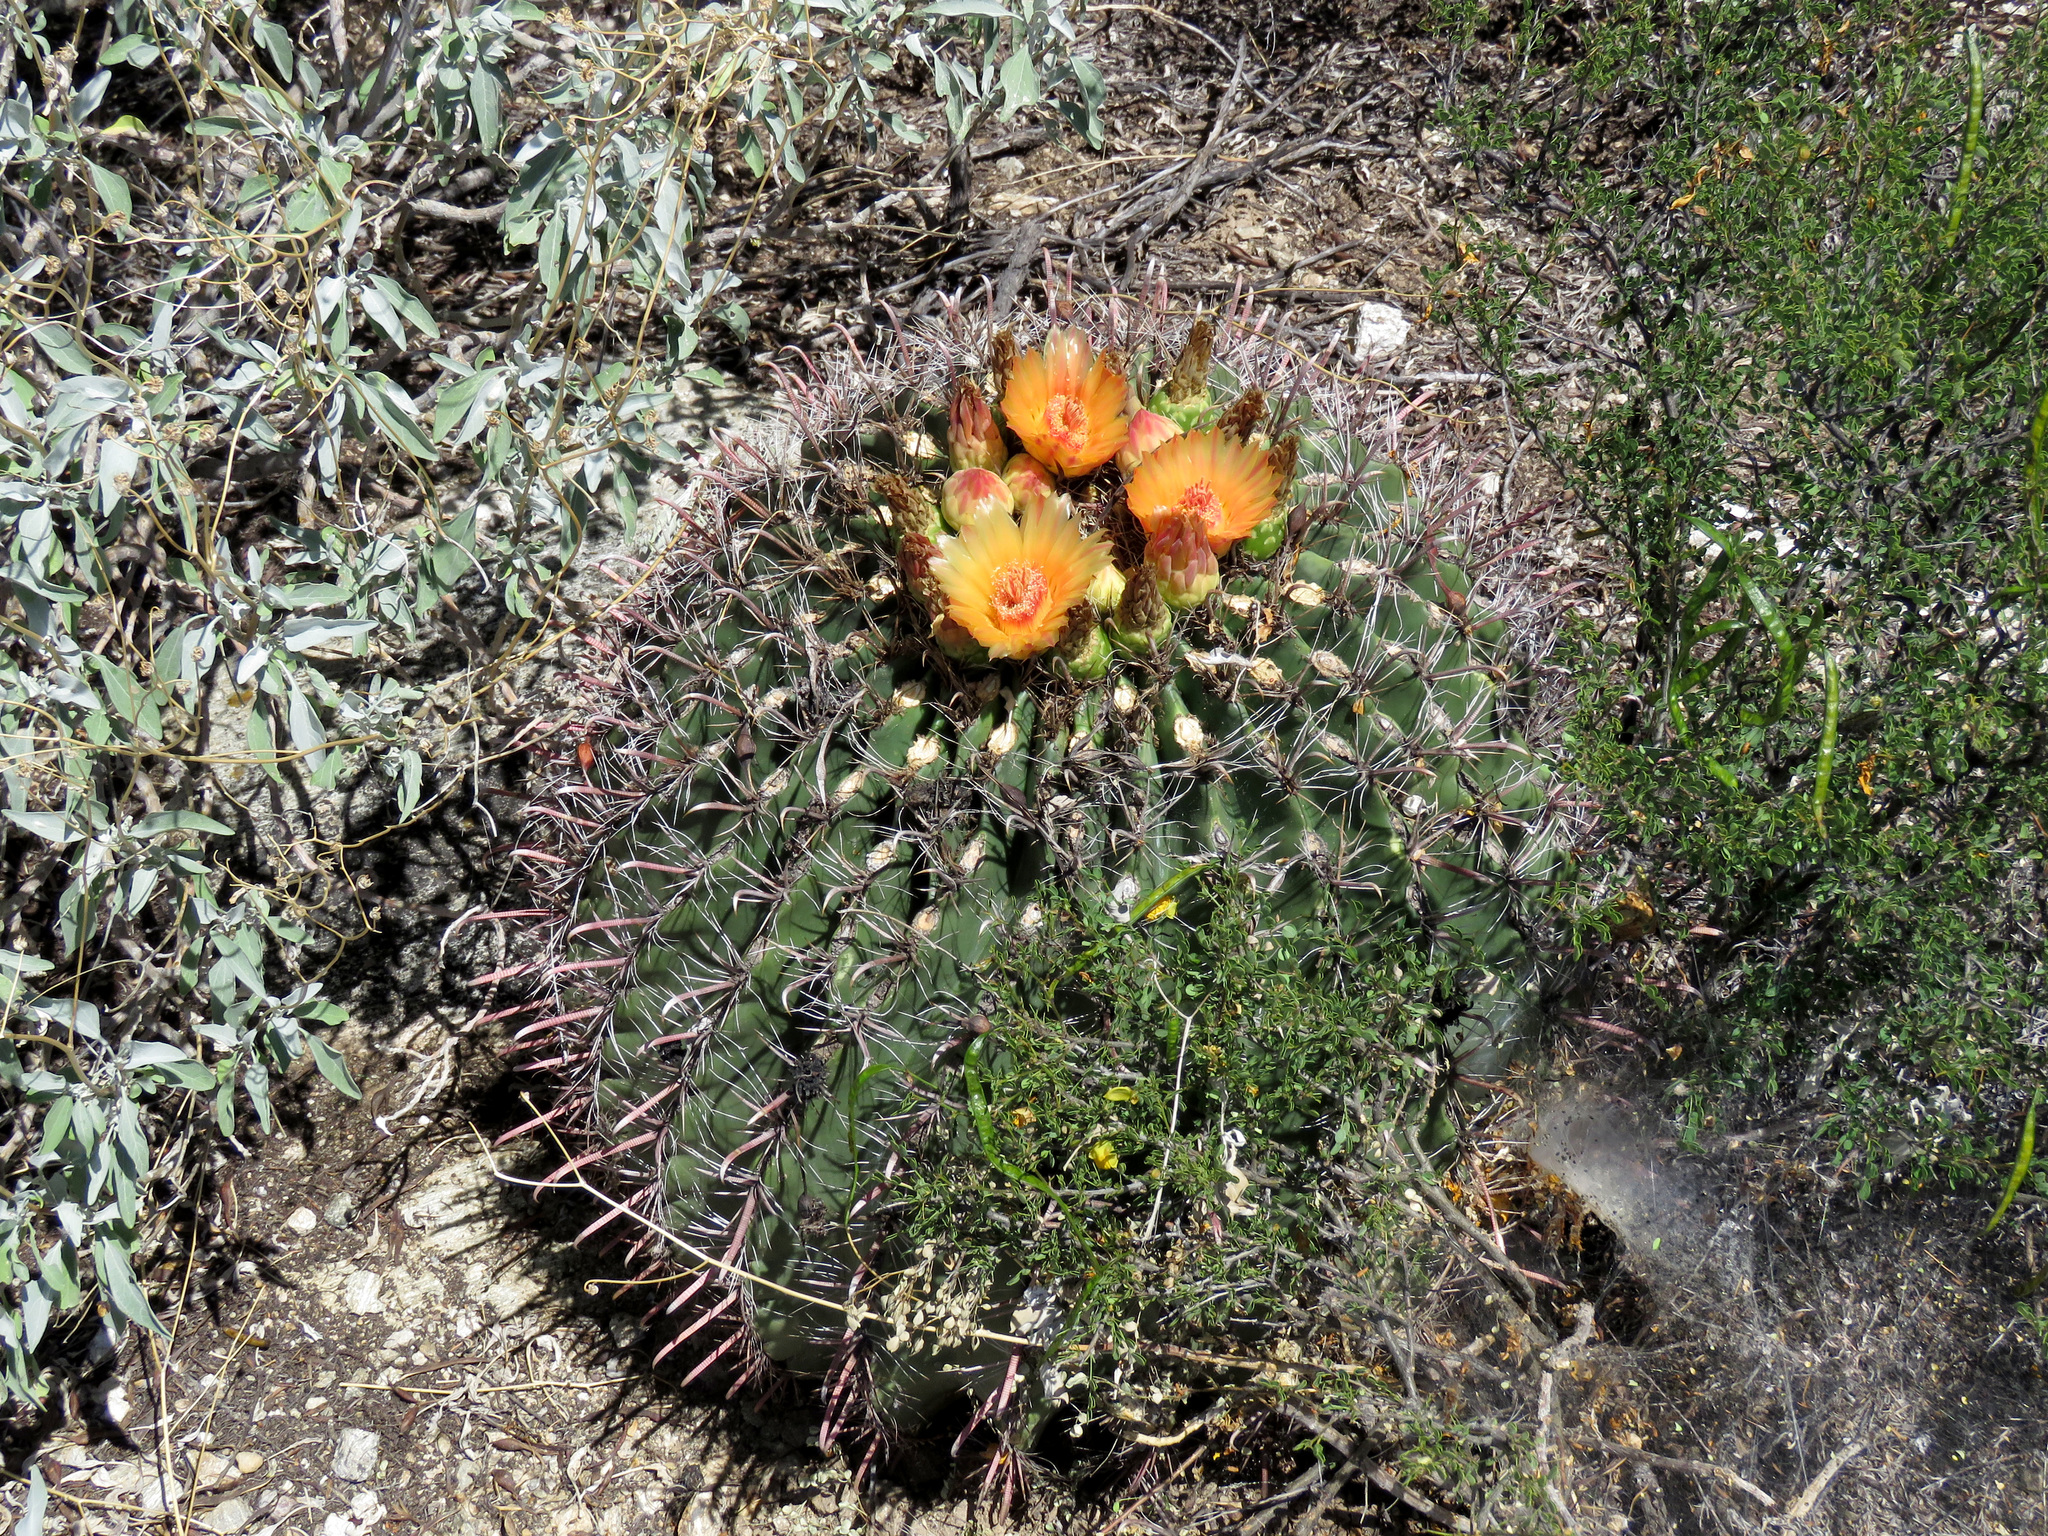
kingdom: Plantae
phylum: Tracheophyta
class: Magnoliopsida
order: Caryophyllales
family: Cactaceae
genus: Ferocactus
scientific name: Ferocactus wislizeni
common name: Candy barrel cactus
